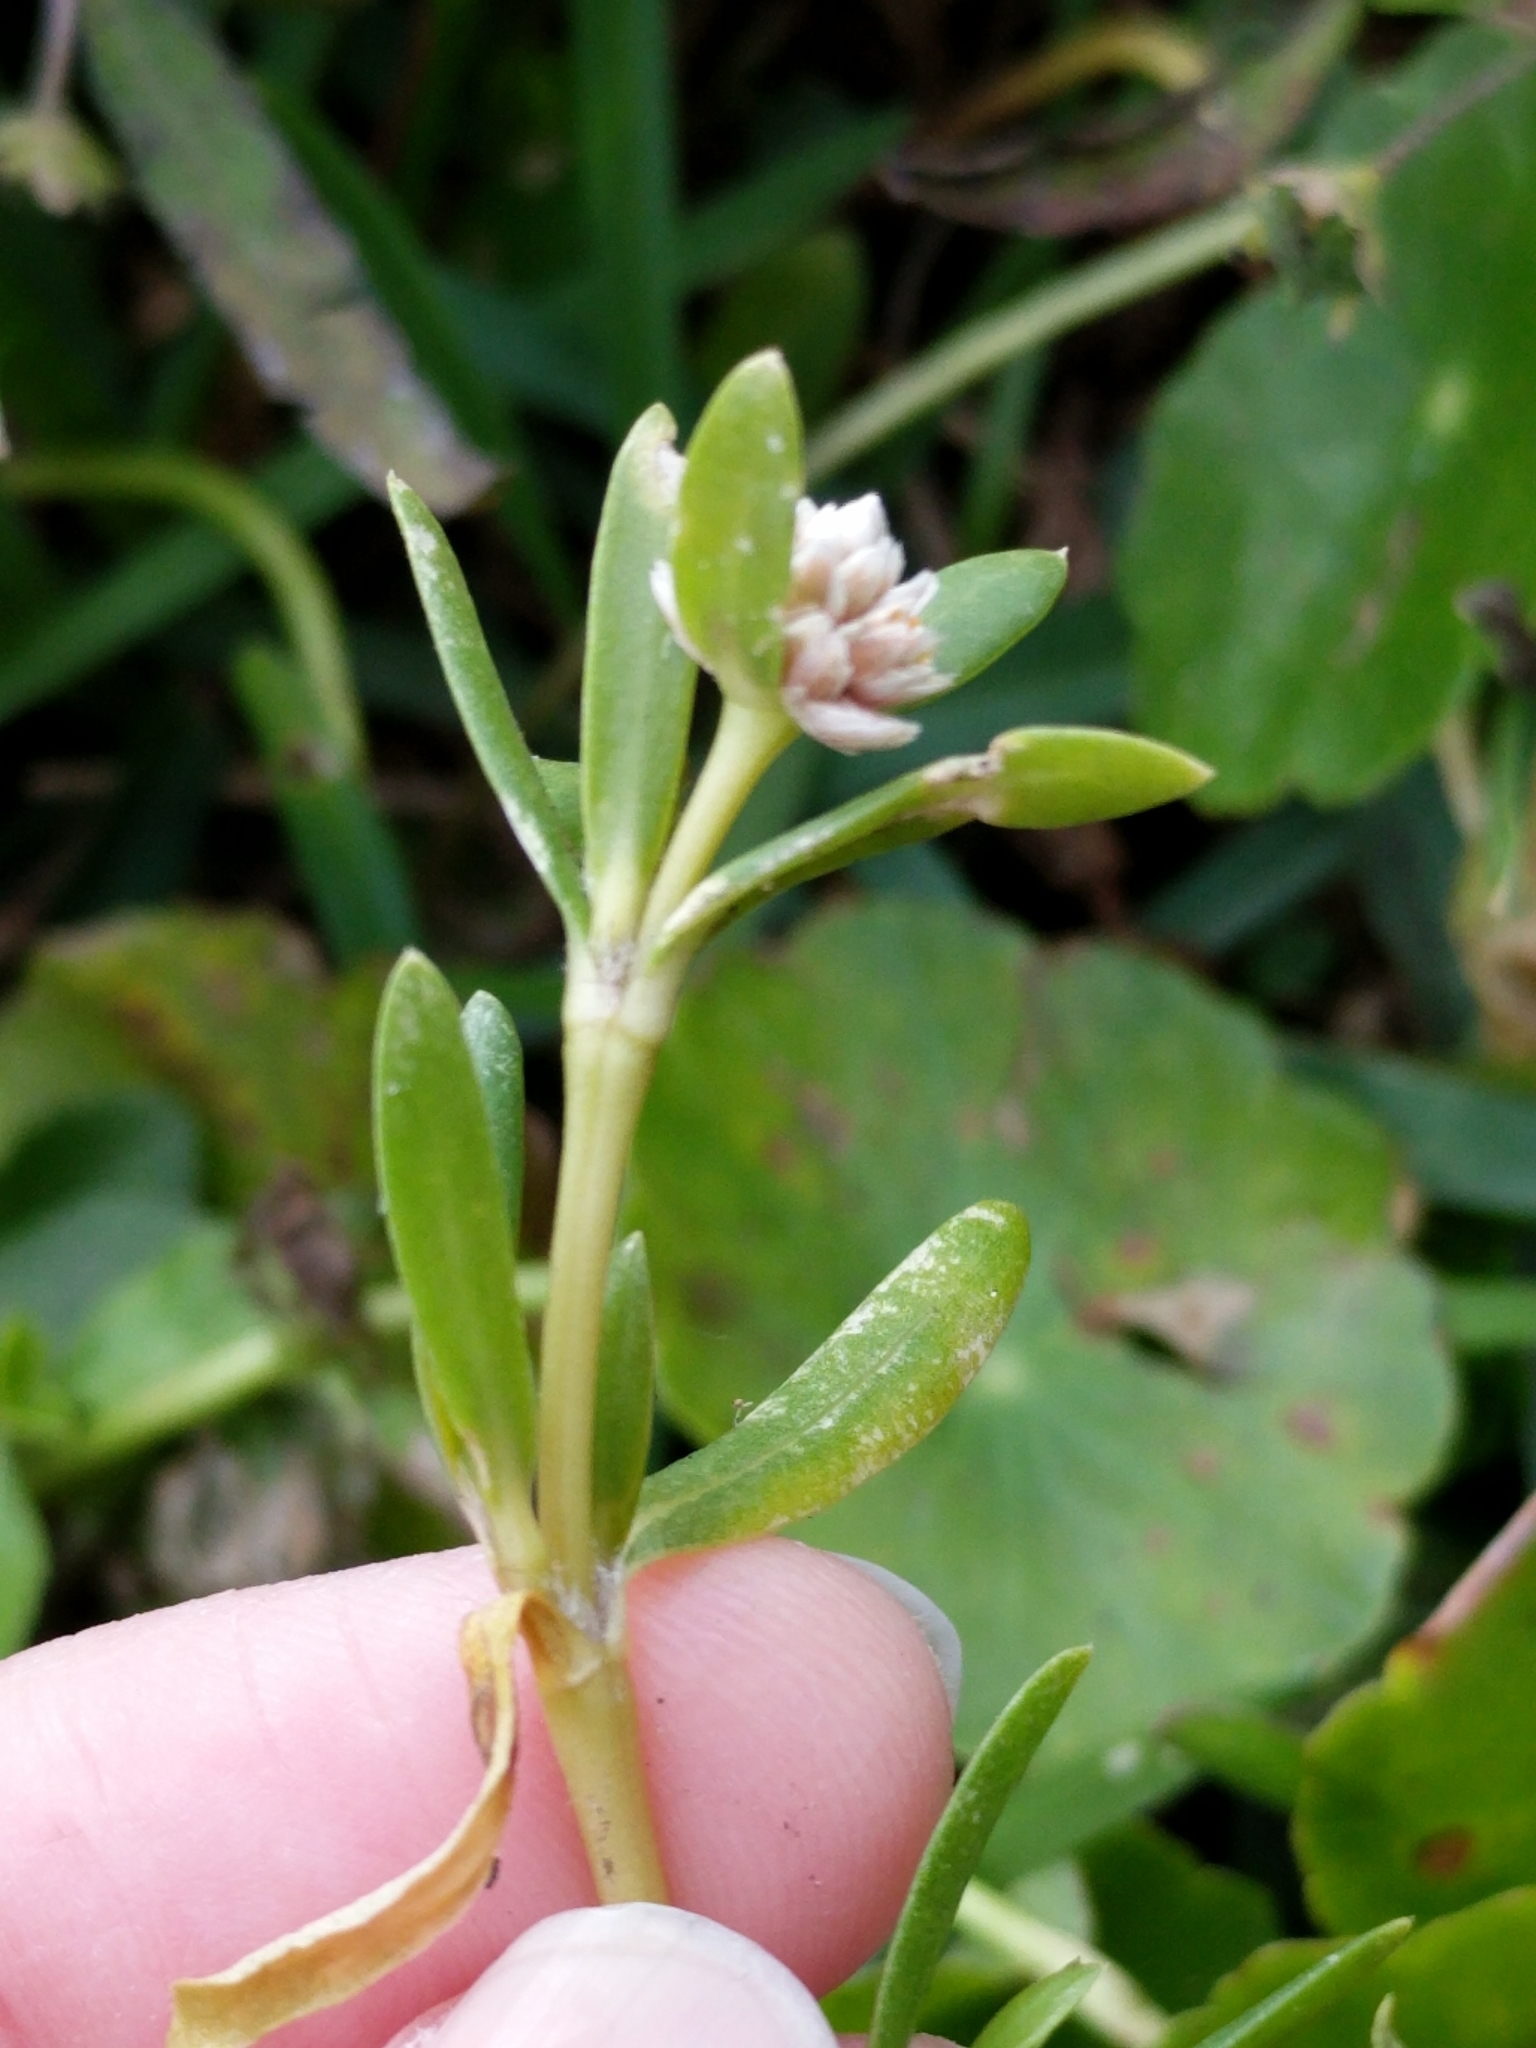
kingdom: Plantae
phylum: Tracheophyta
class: Magnoliopsida
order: Caryophyllales
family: Amaranthaceae
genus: Gomphrena
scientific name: Gomphrena vermicularis
